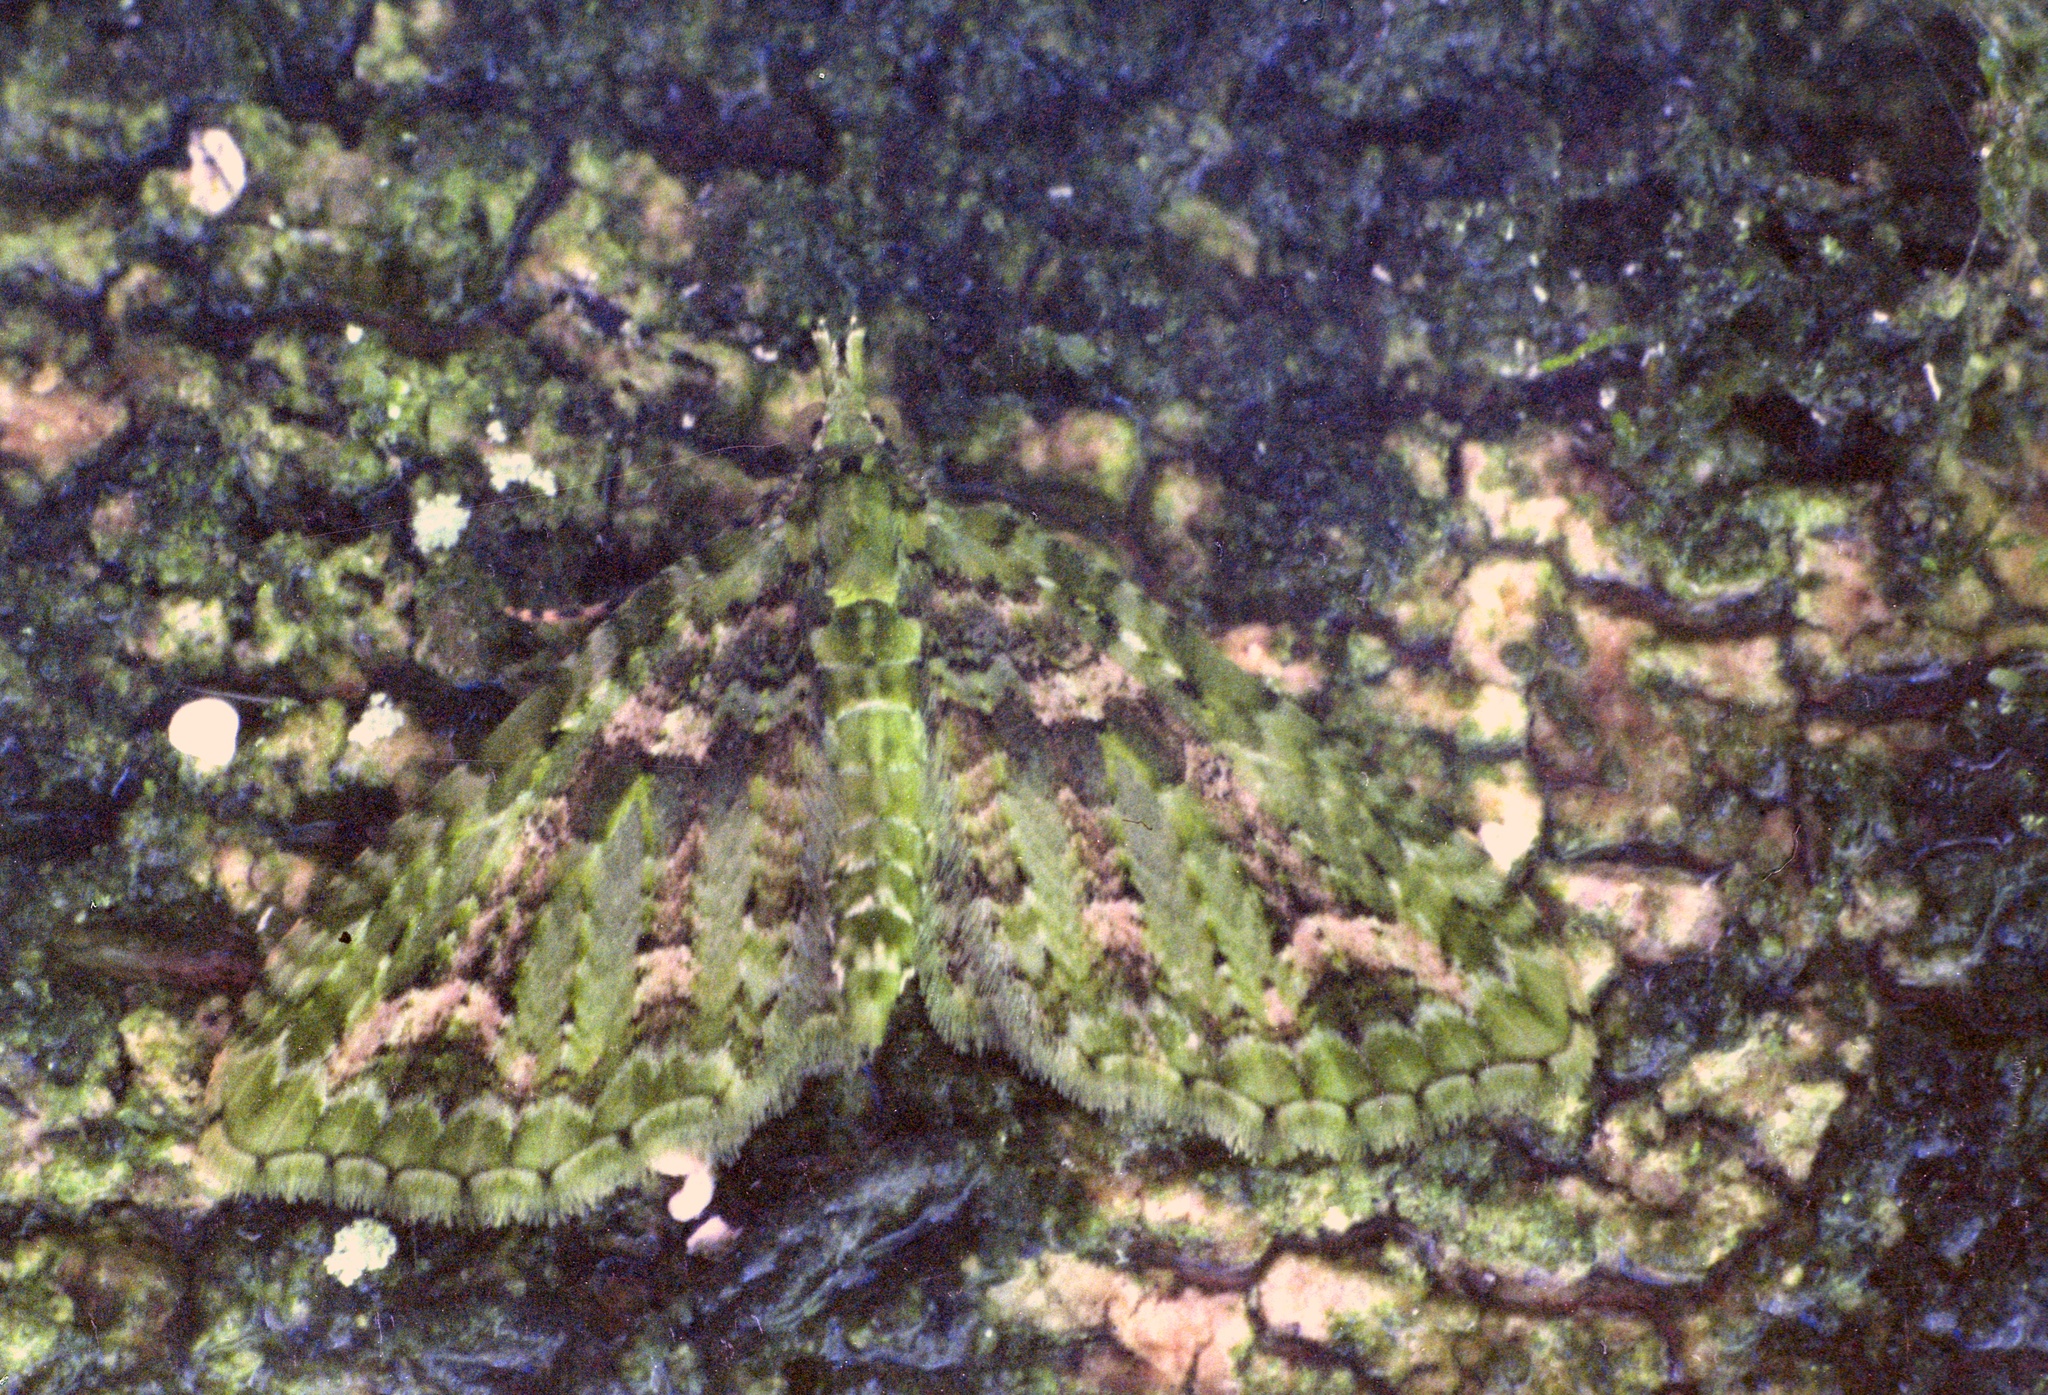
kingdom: Animalia
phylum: Arthropoda
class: Insecta
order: Lepidoptera
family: Geometridae
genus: Pasiphila
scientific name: Pasiphila muscosata
